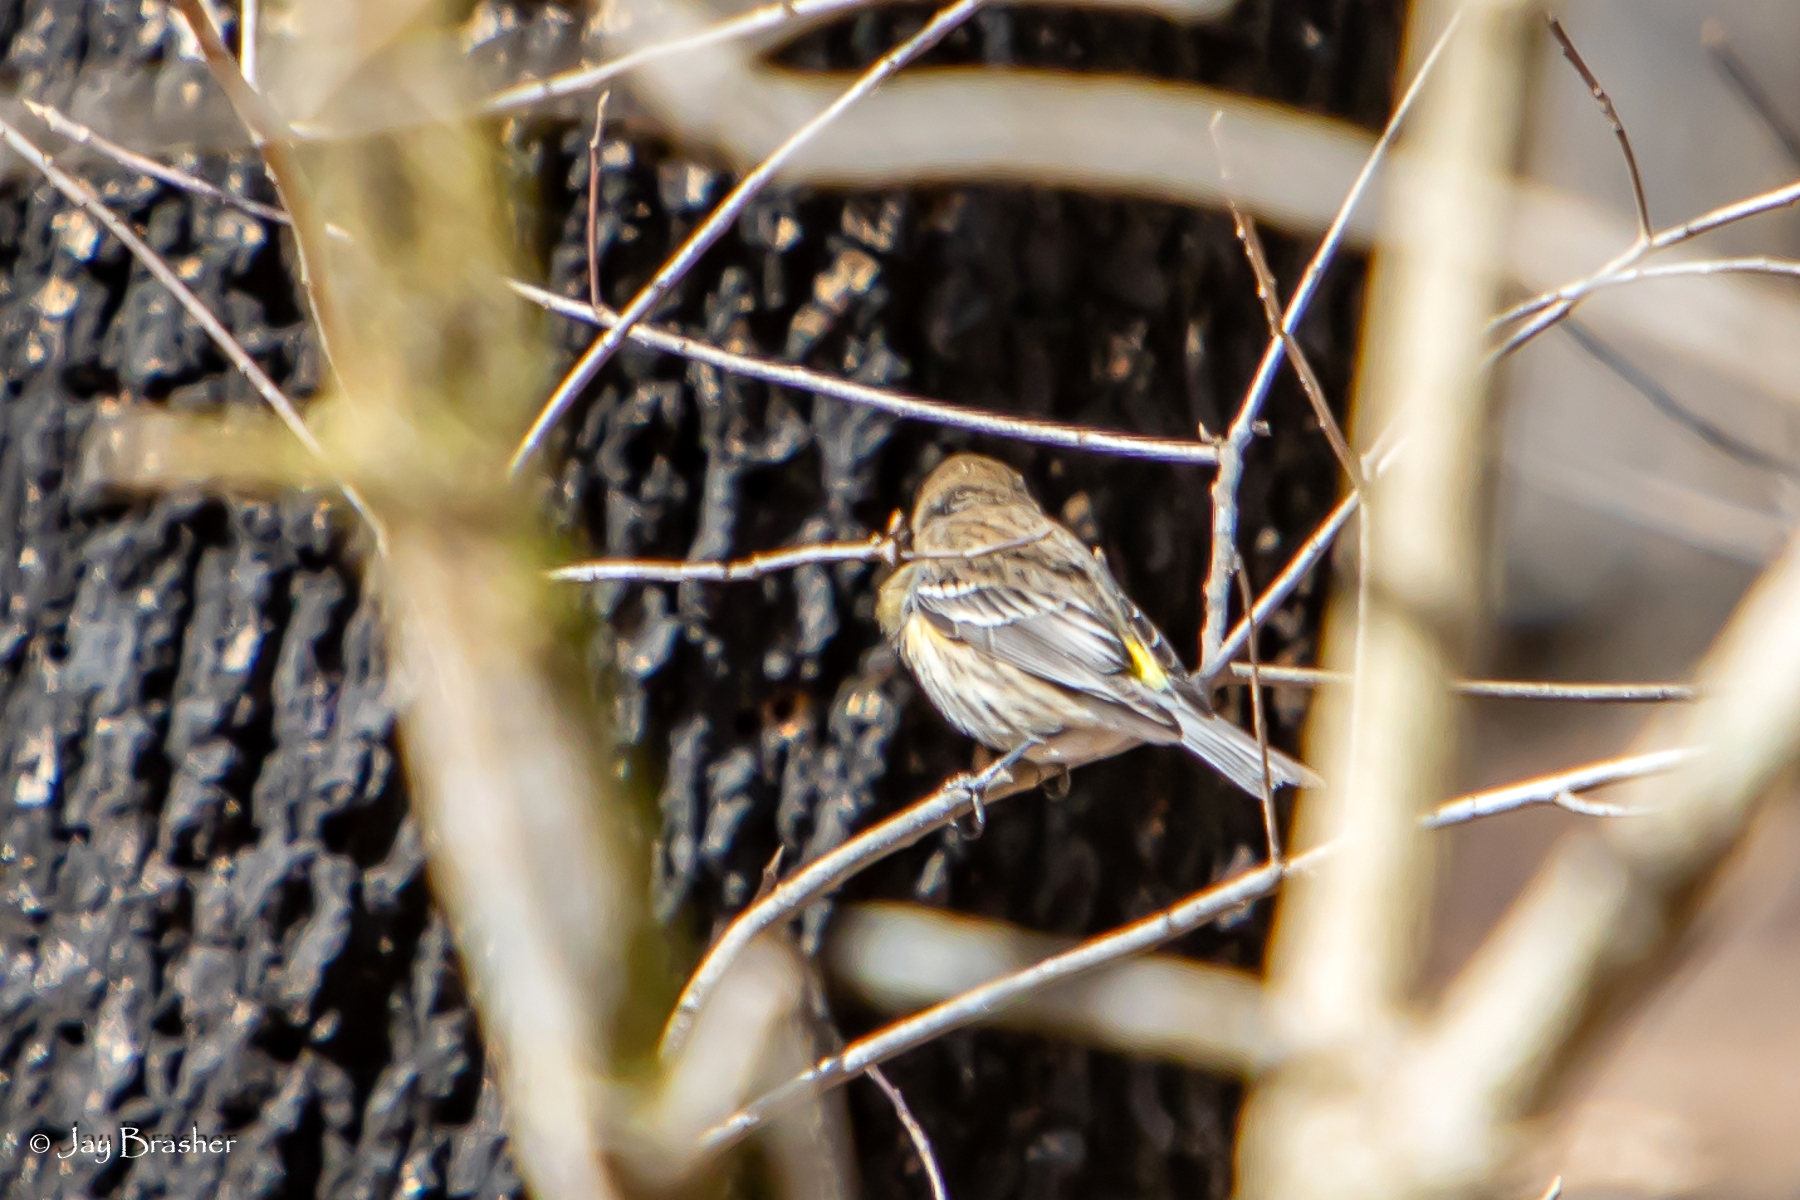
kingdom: Animalia
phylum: Chordata
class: Aves
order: Passeriformes
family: Parulidae
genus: Setophaga
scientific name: Setophaga coronata
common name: Myrtle warbler
